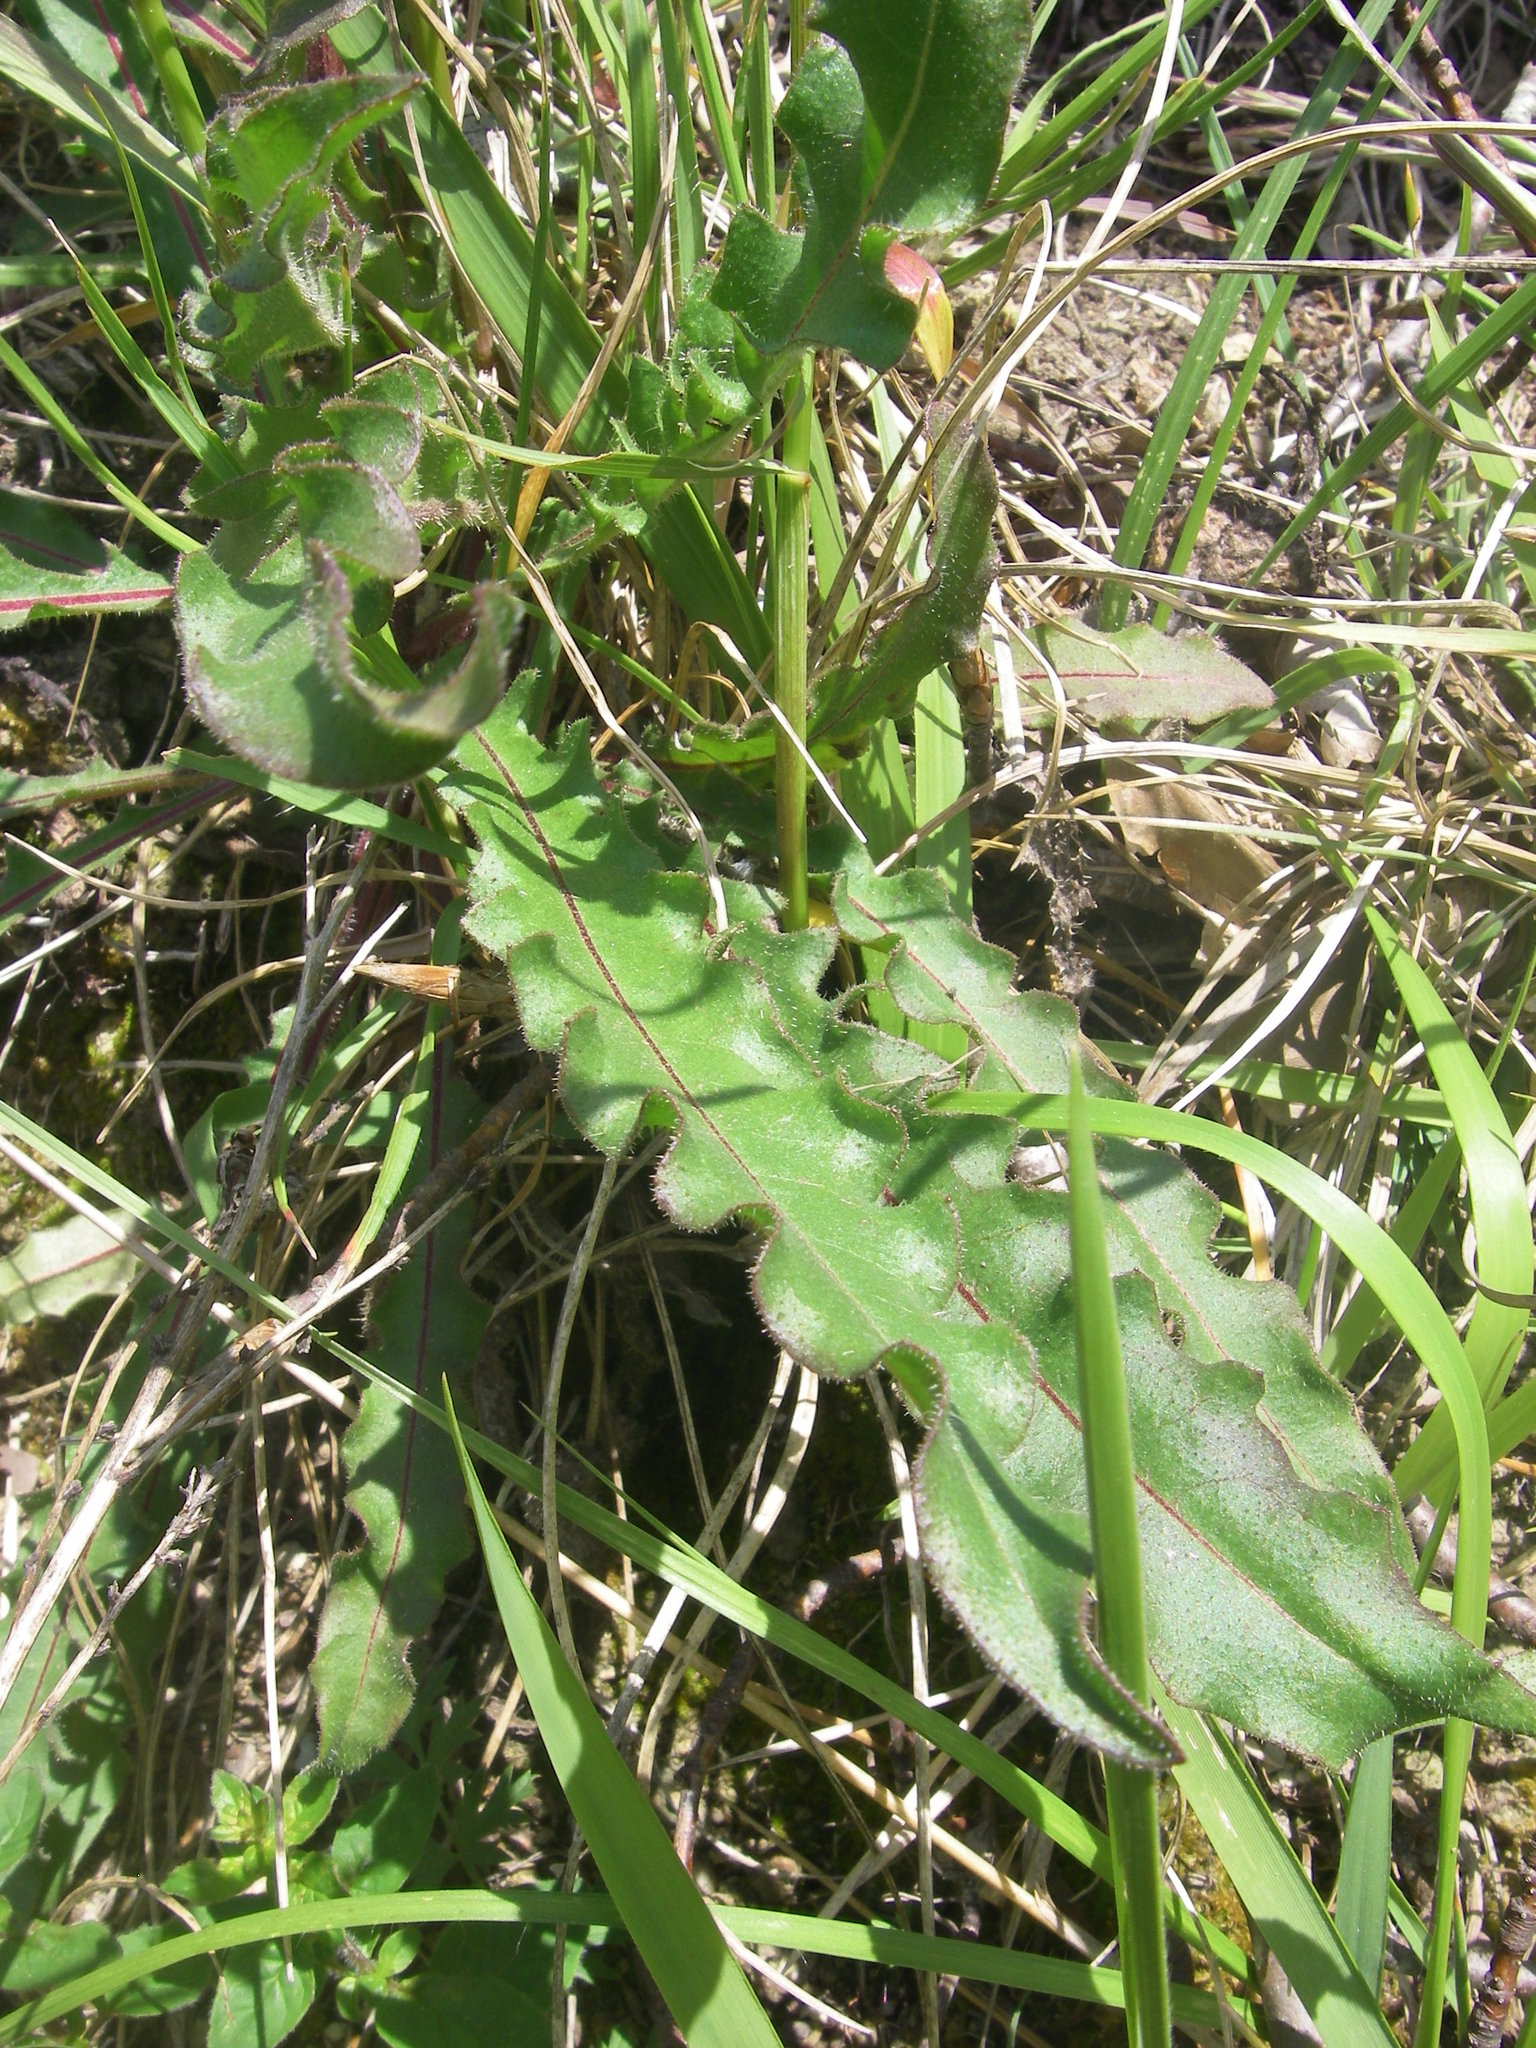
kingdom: Plantae
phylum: Tracheophyta
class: Magnoliopsida
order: Asterales
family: Asteraceae
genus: Picris
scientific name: Picris hieracioides
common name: Hawkweed oxtongue
